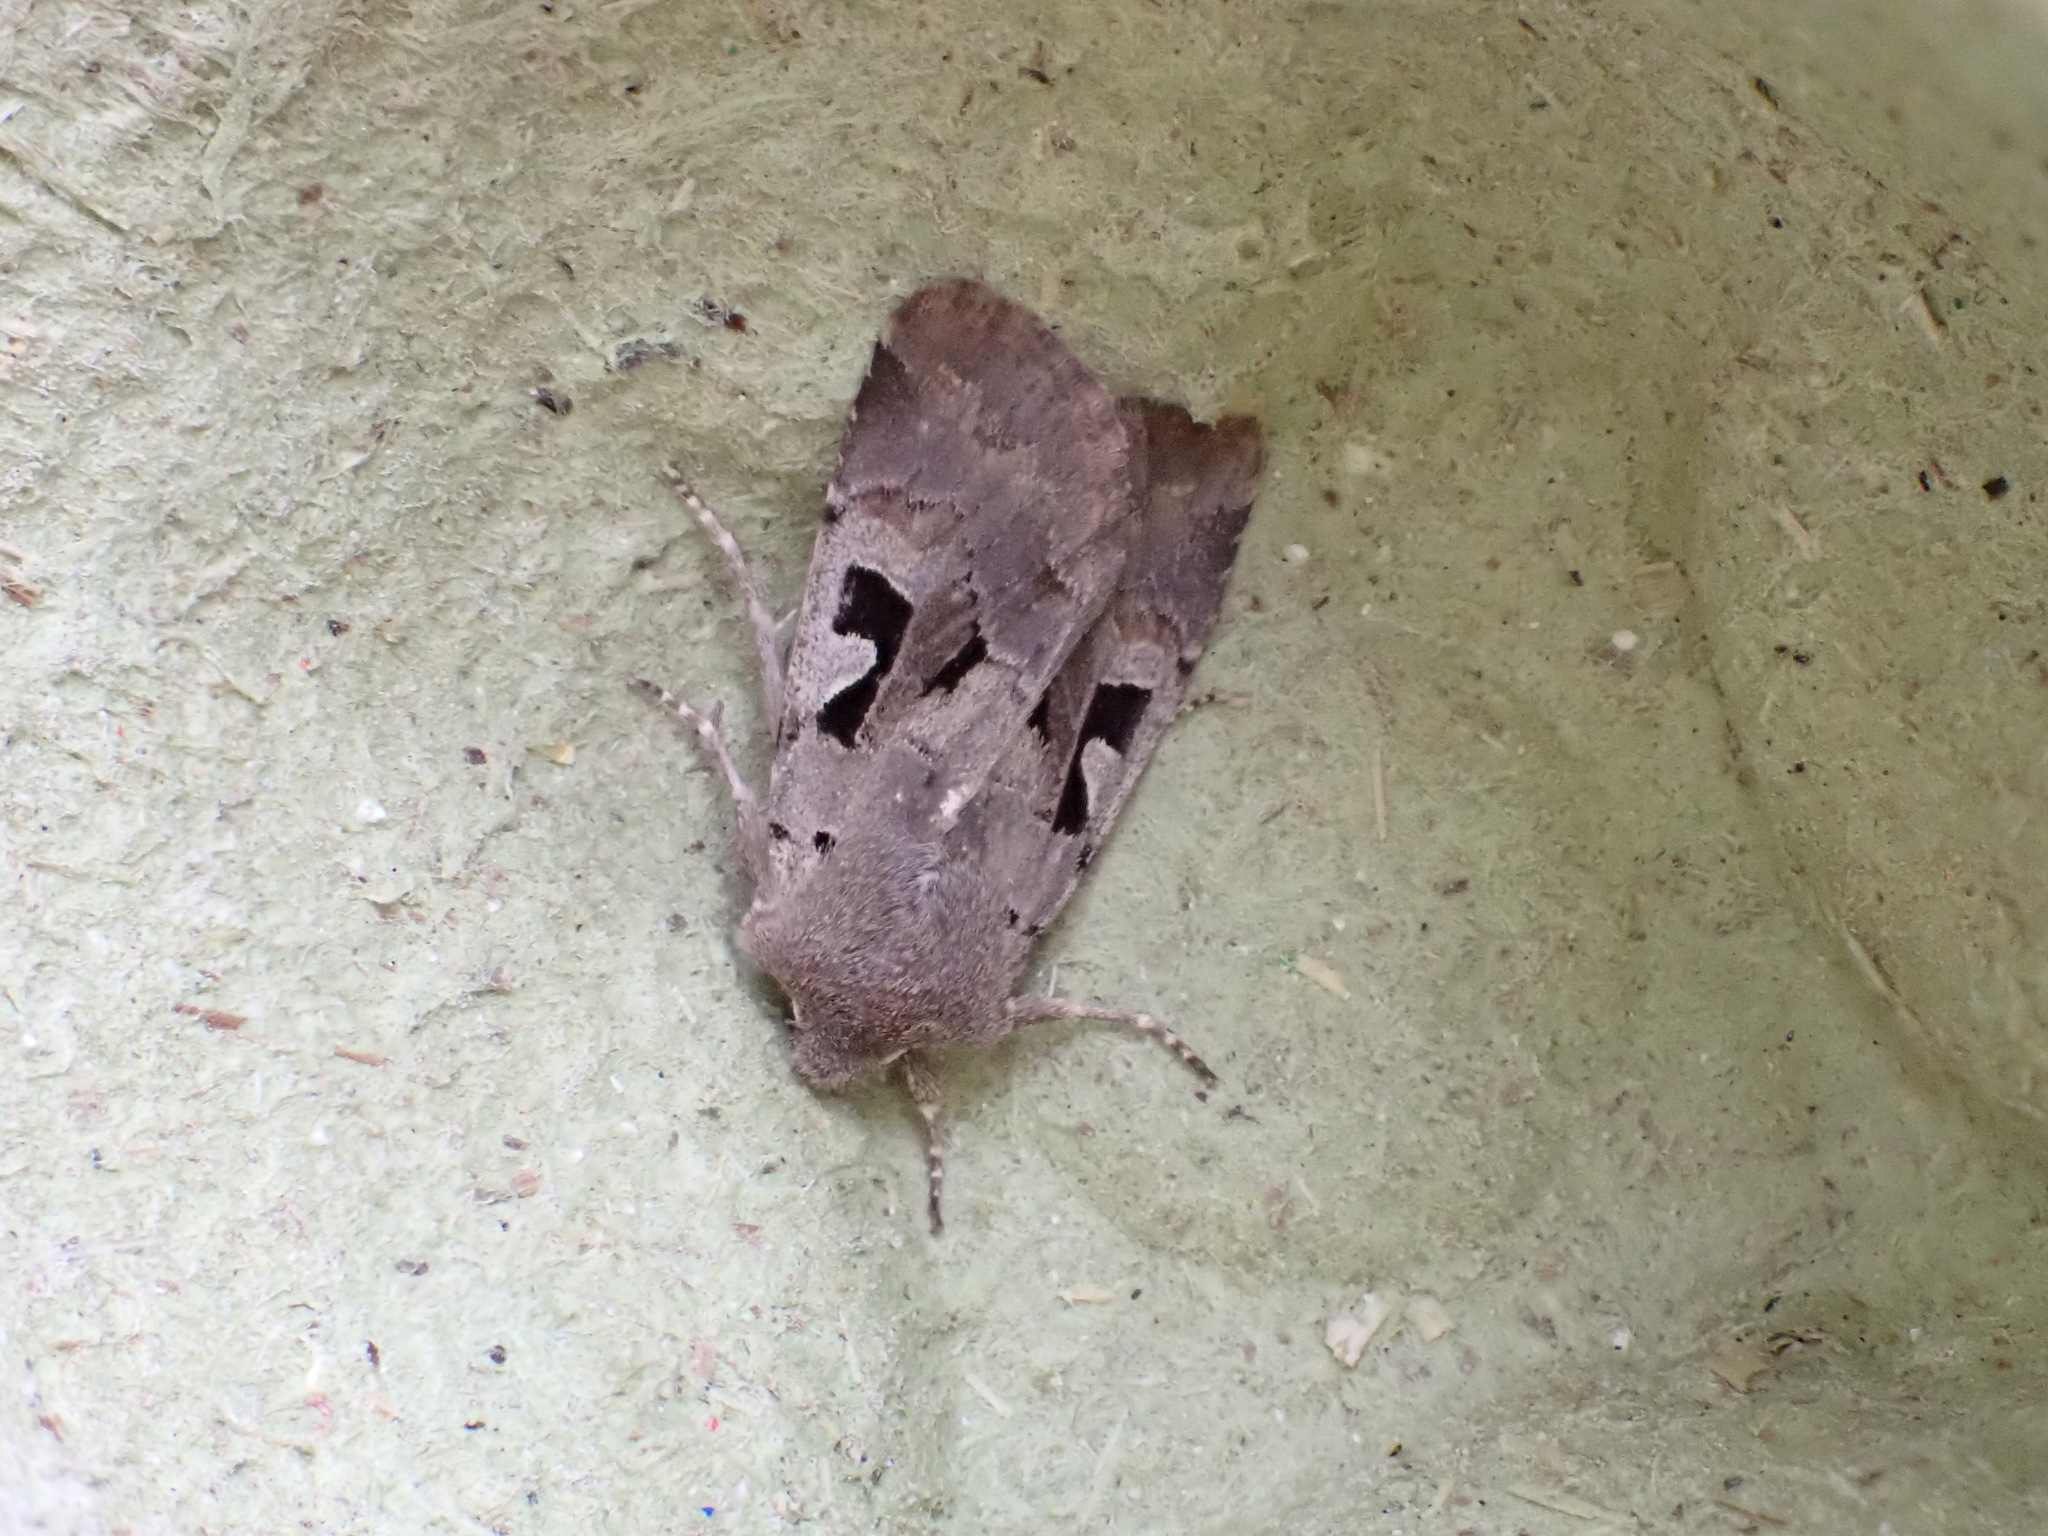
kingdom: Animalia
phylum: Arthropoda
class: Insecta
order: Lepidoptera
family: Noctuidae
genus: Orthosia
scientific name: Orthosia gothica
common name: Hebrew character
